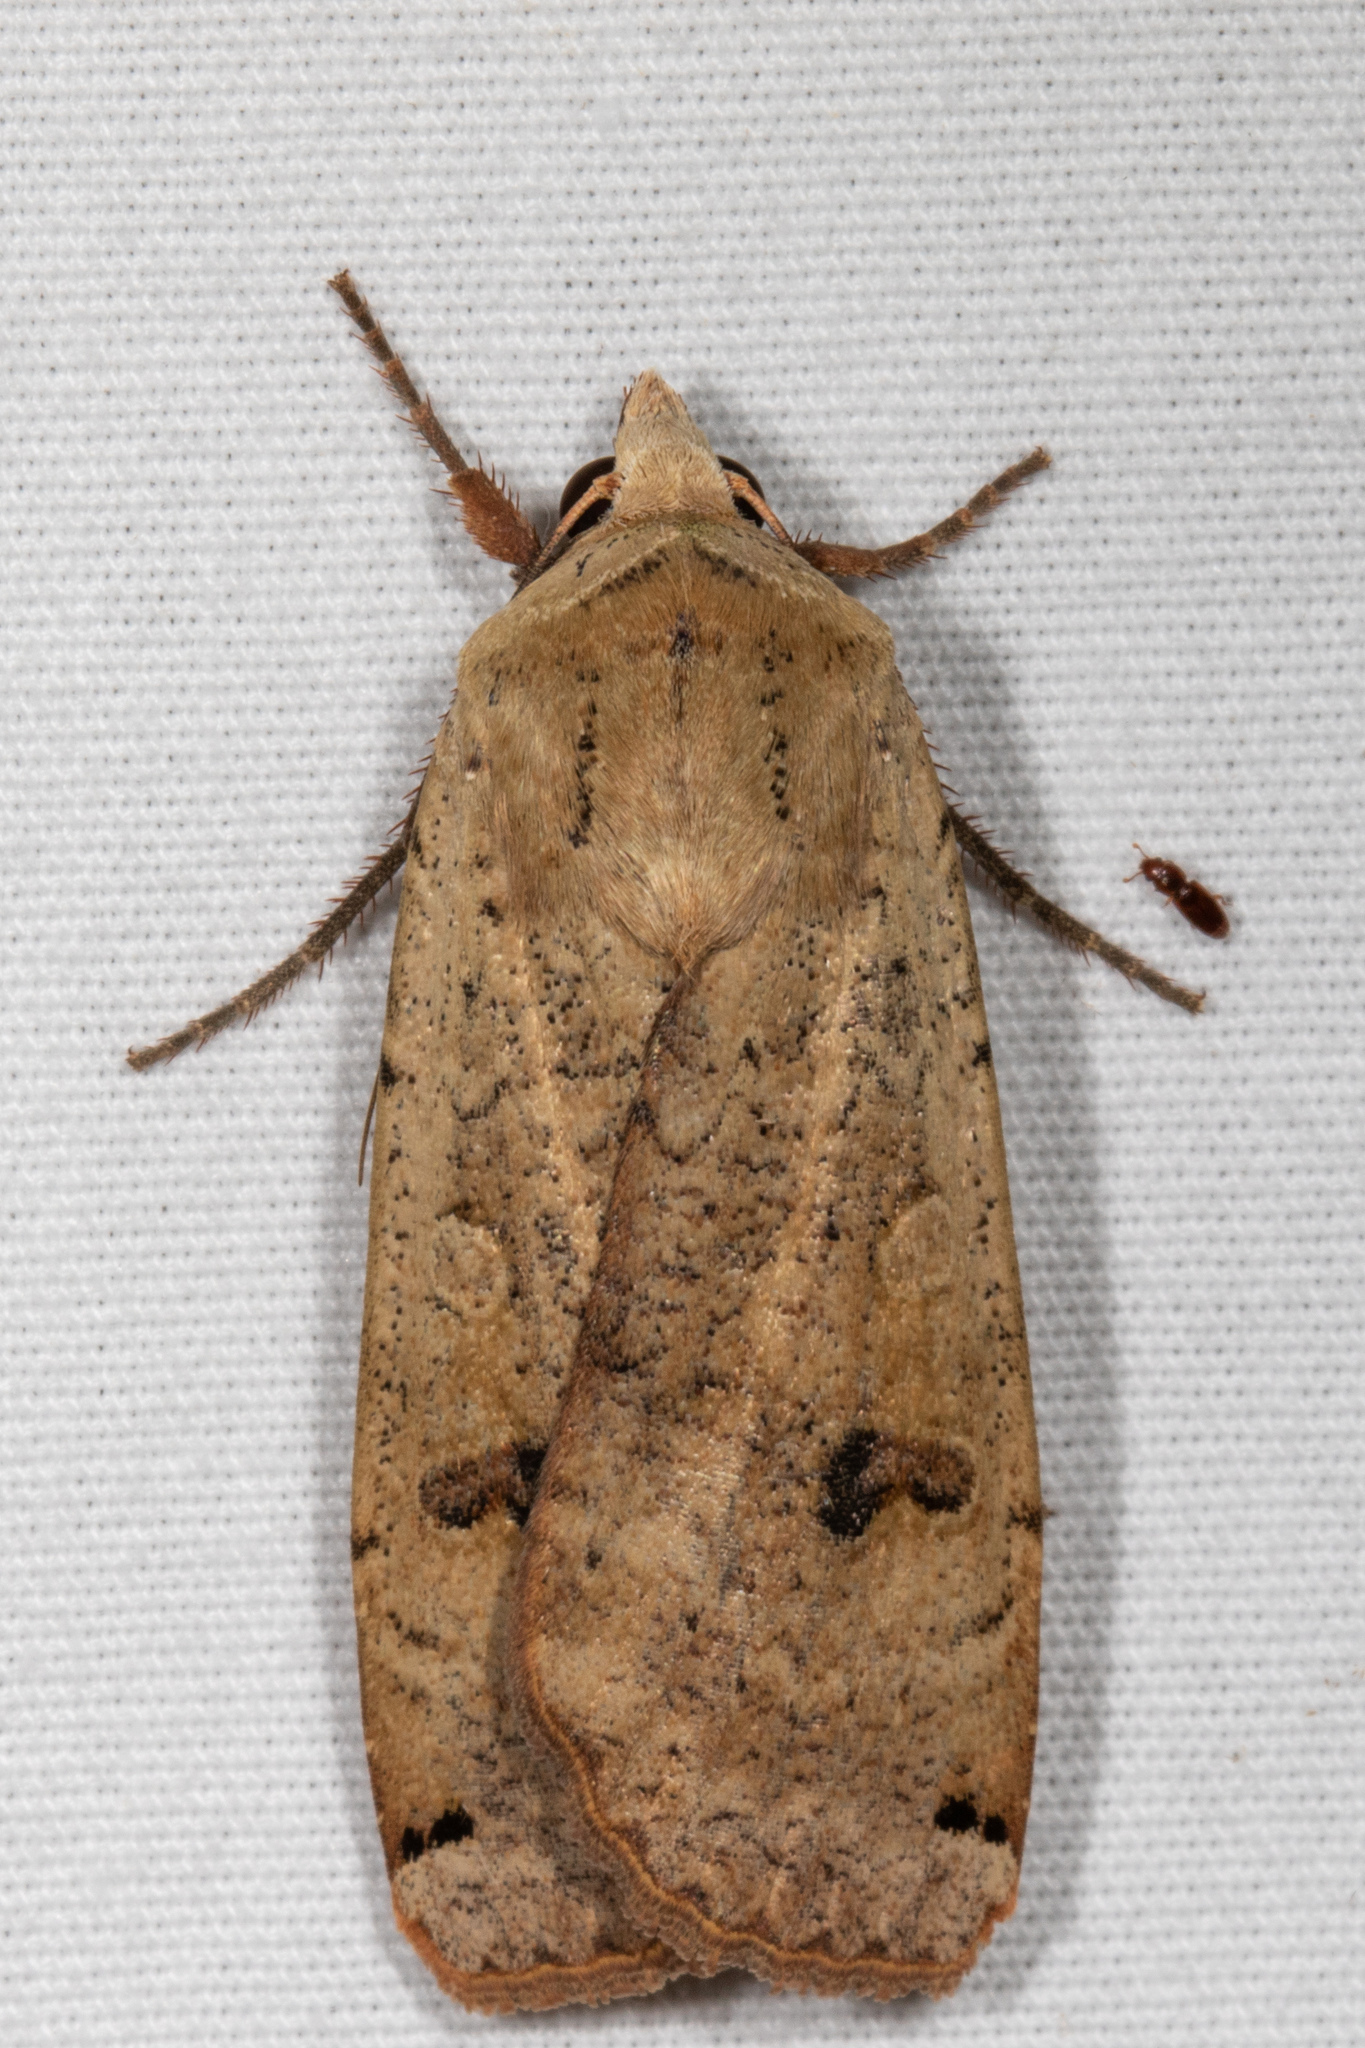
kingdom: Animalia
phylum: Arthropoda
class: Insecta
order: Lepidoptera
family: Noctuidae
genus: Noctua
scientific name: Noctua pronuba
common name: Large yellow underwing
